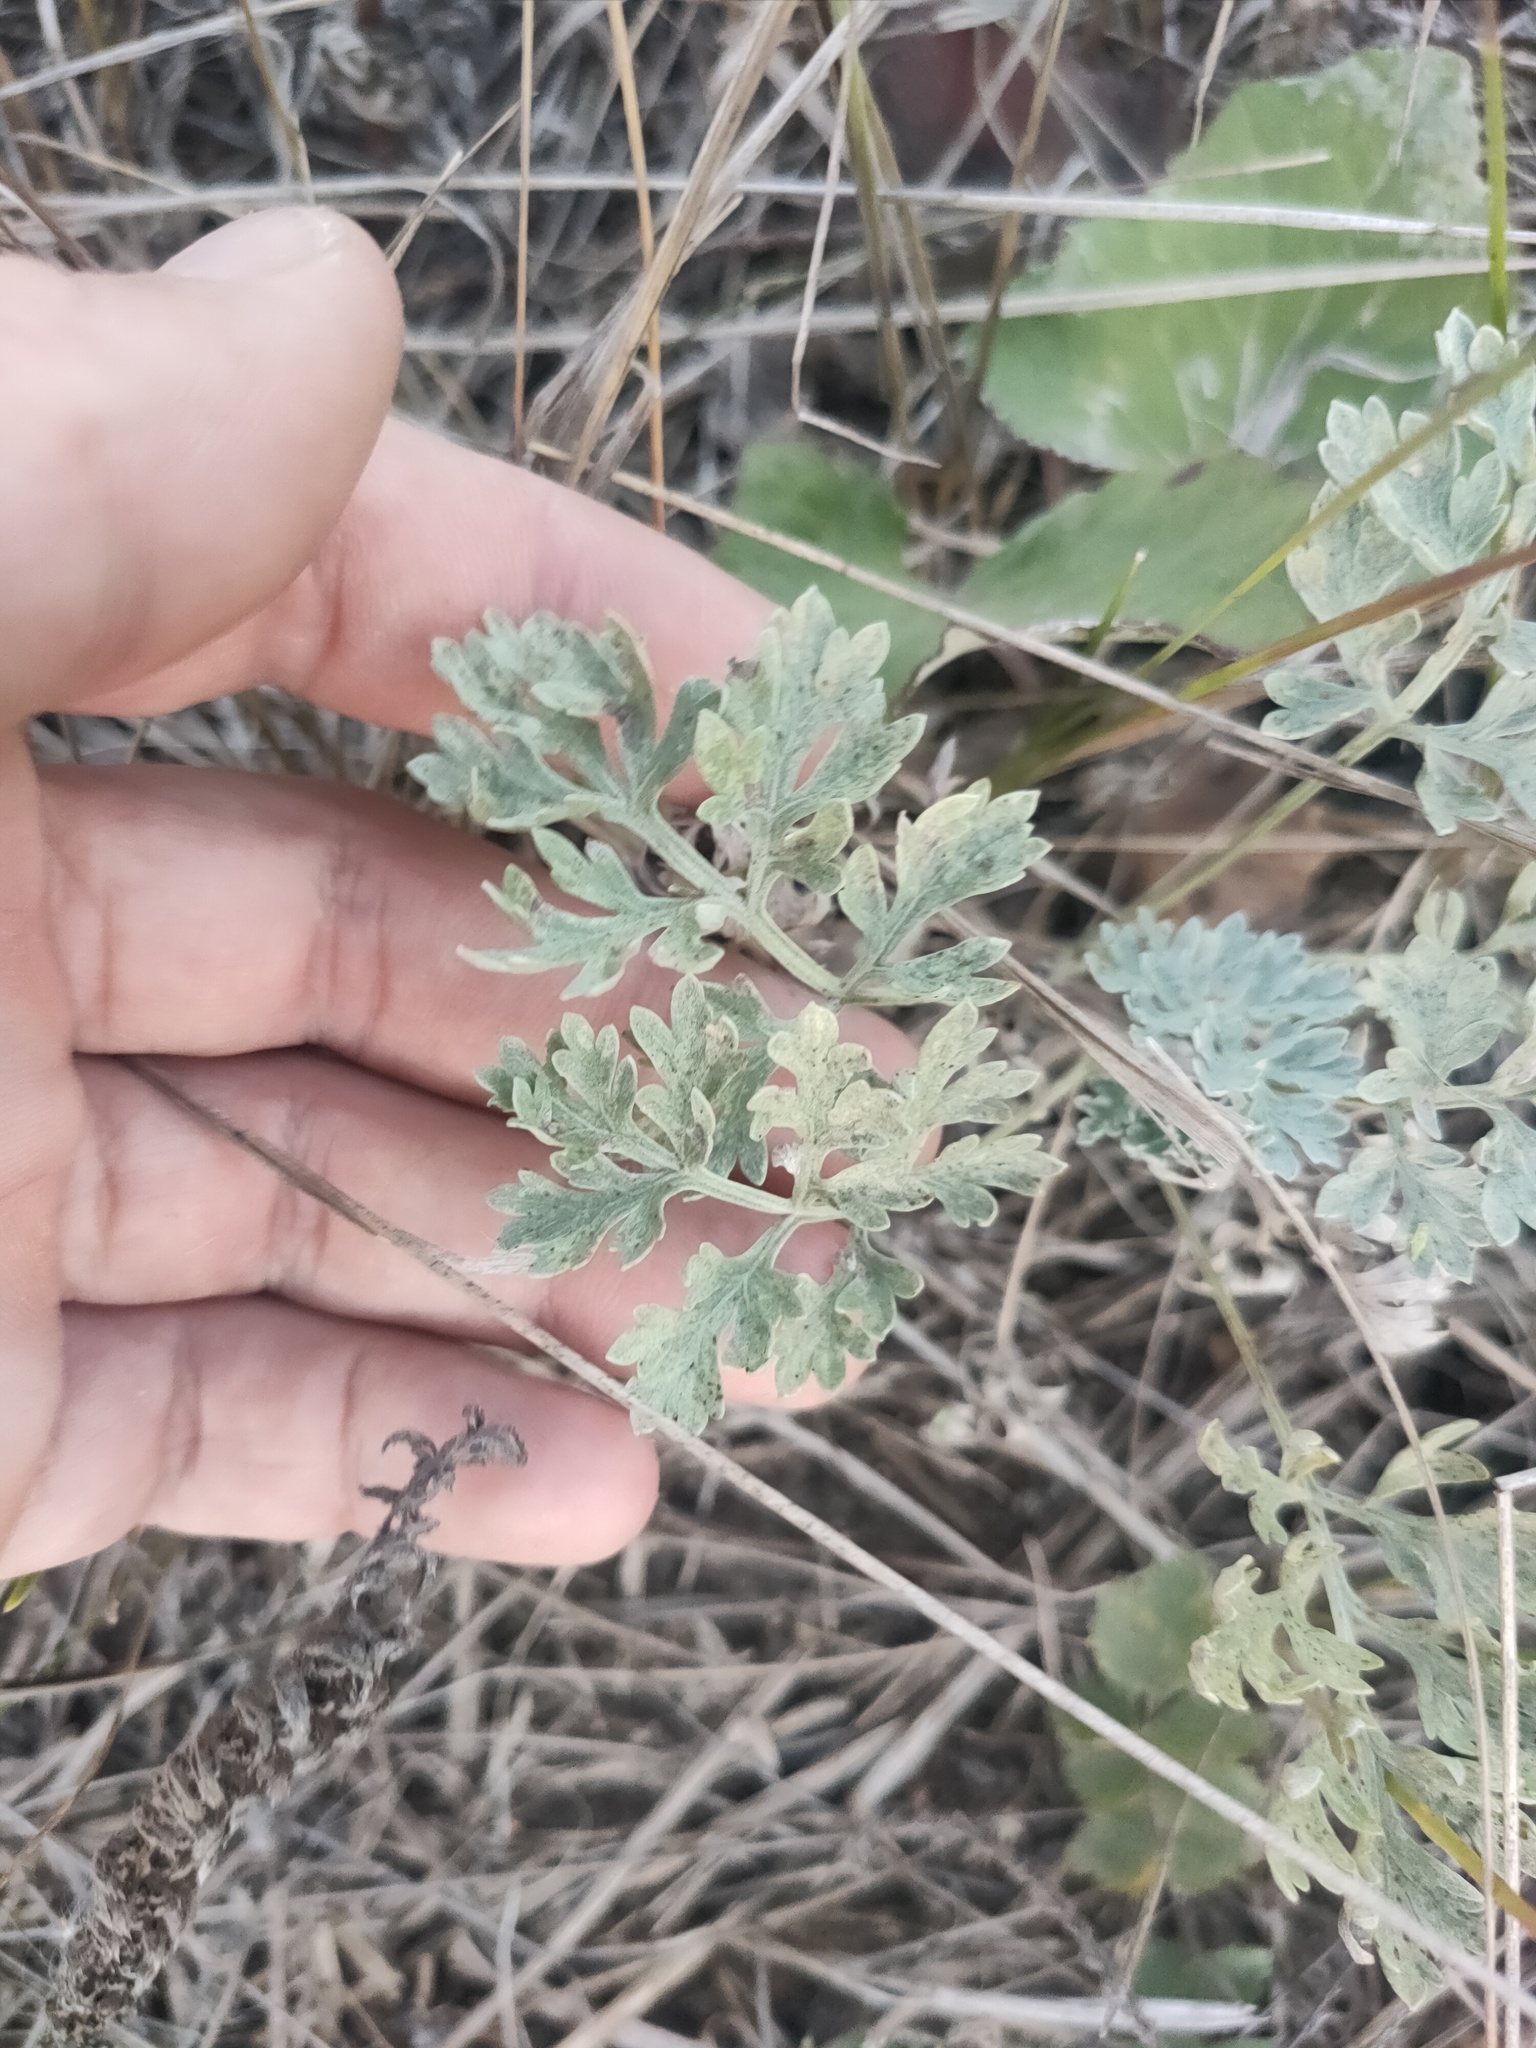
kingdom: Plantae
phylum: Tracheophyta
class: Magnoliopsida
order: Asterales
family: Asteraceae
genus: Artemisia
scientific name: Artemisia absinthium
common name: Wormwood
